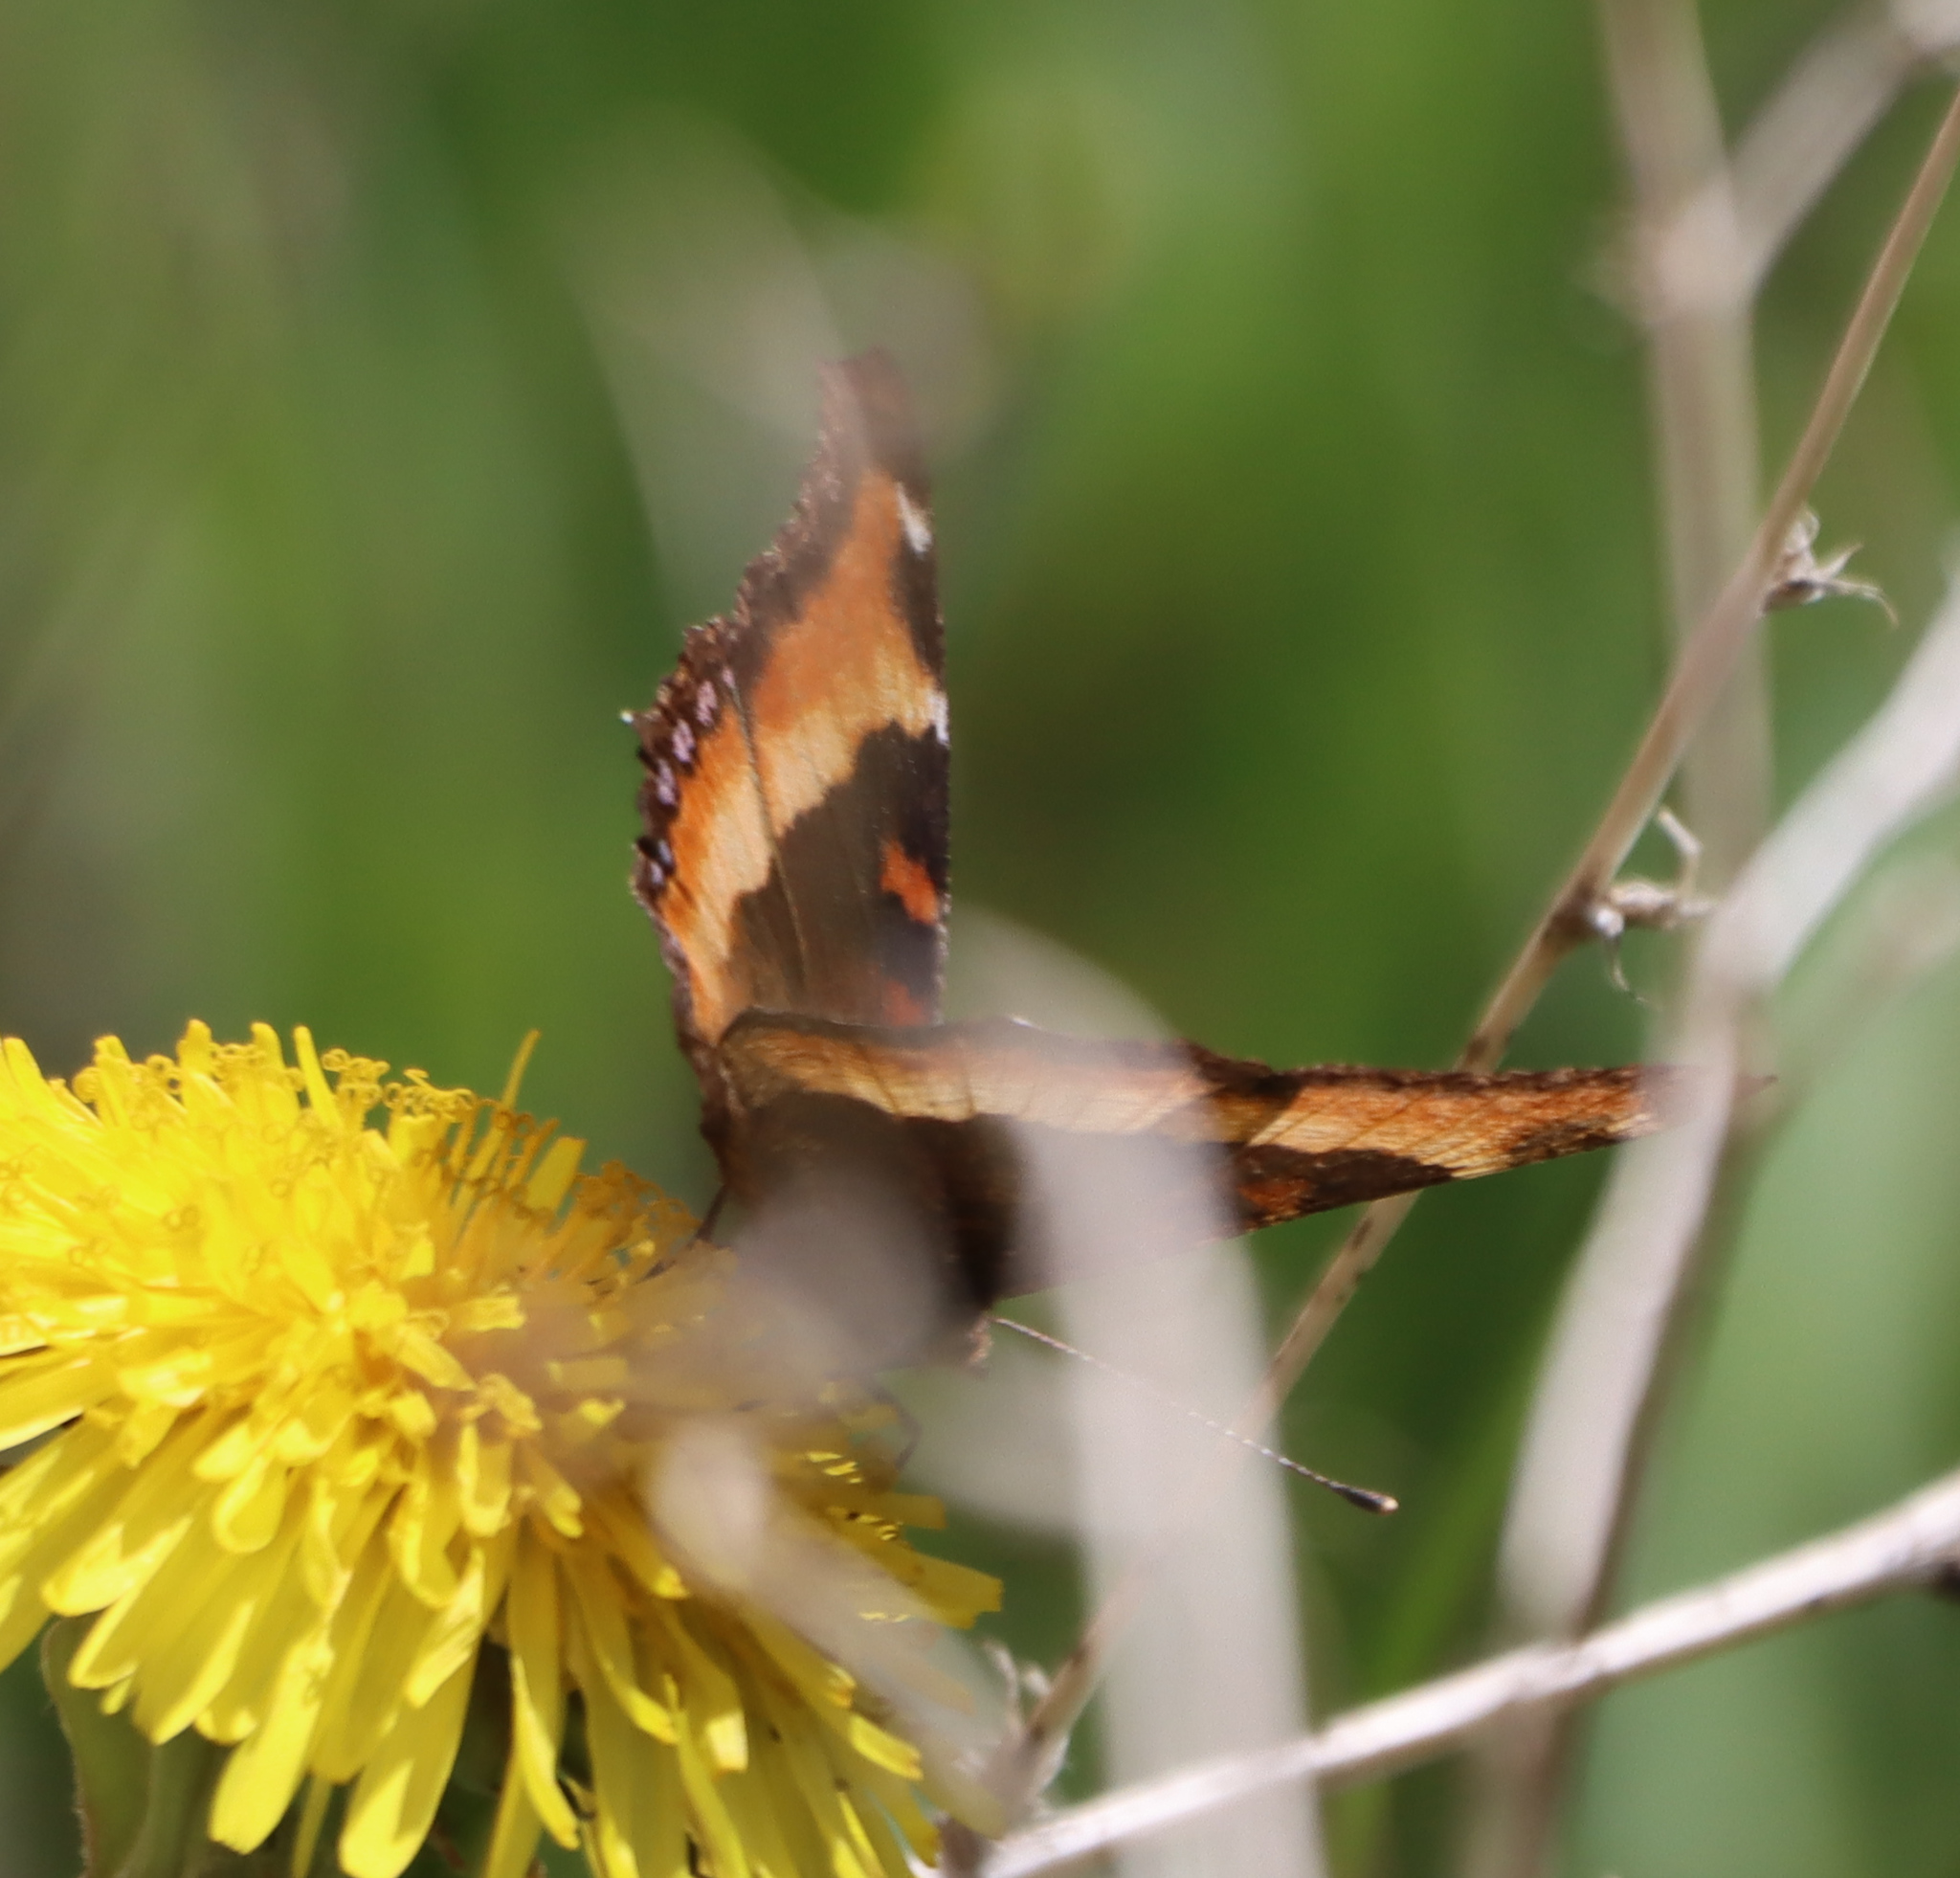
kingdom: Animalia
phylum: Arthropoda
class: Insecta
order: Lepidoptera
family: Nymphalidae
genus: Aglais
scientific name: Aglais milberti
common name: Milbert's tortoiseshell
